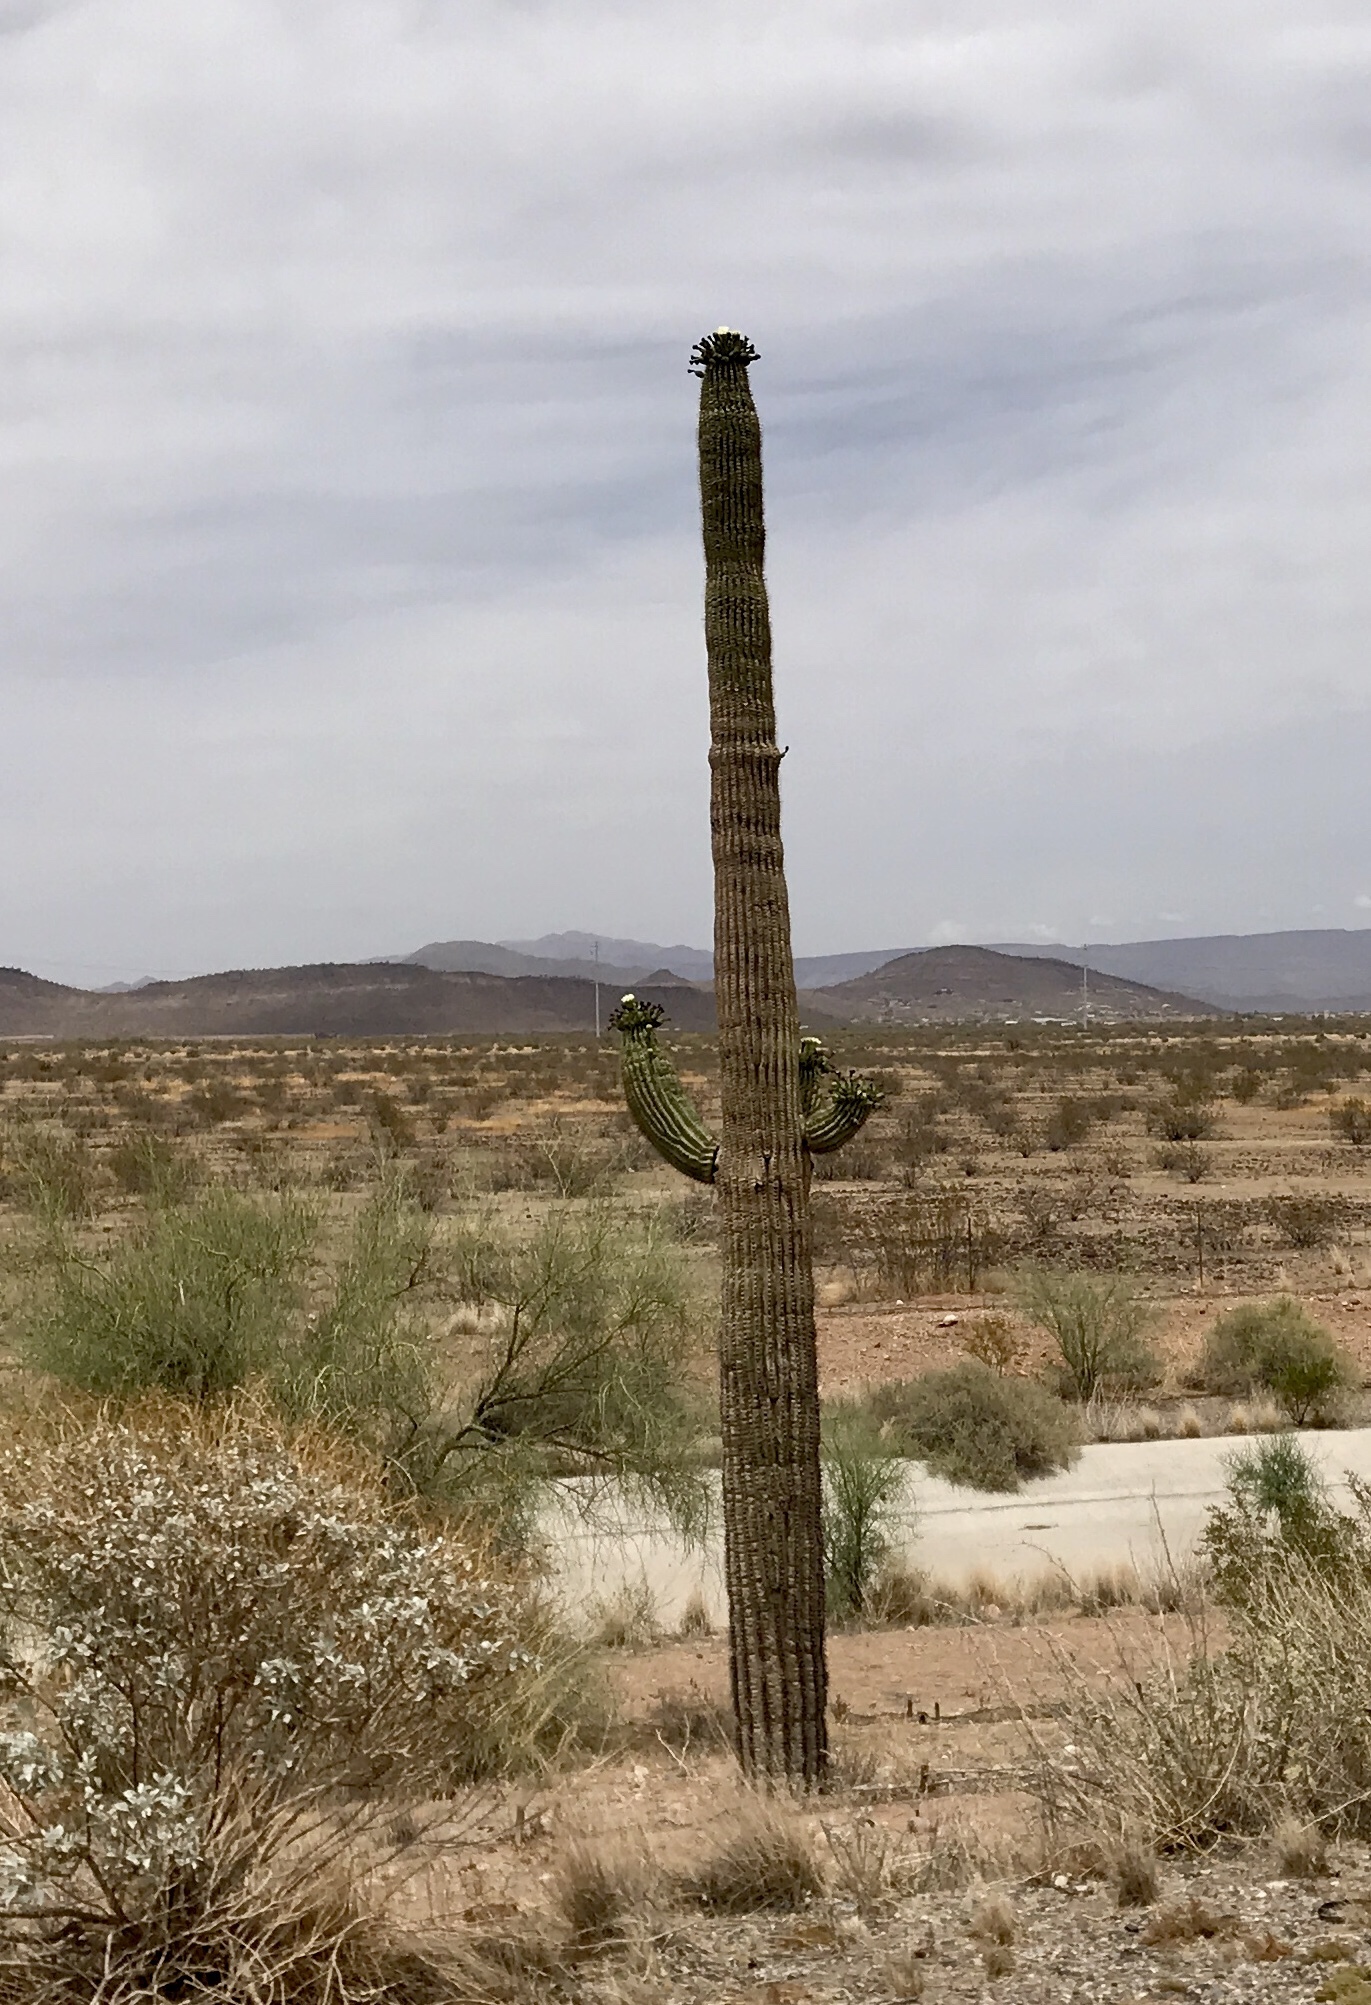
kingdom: Plantae
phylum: Tracheophyta
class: Magnoliopsida
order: Caryophyllales
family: Cactaceae
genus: Carnegiea
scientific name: Carnegiea gigantea
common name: Saguaro
